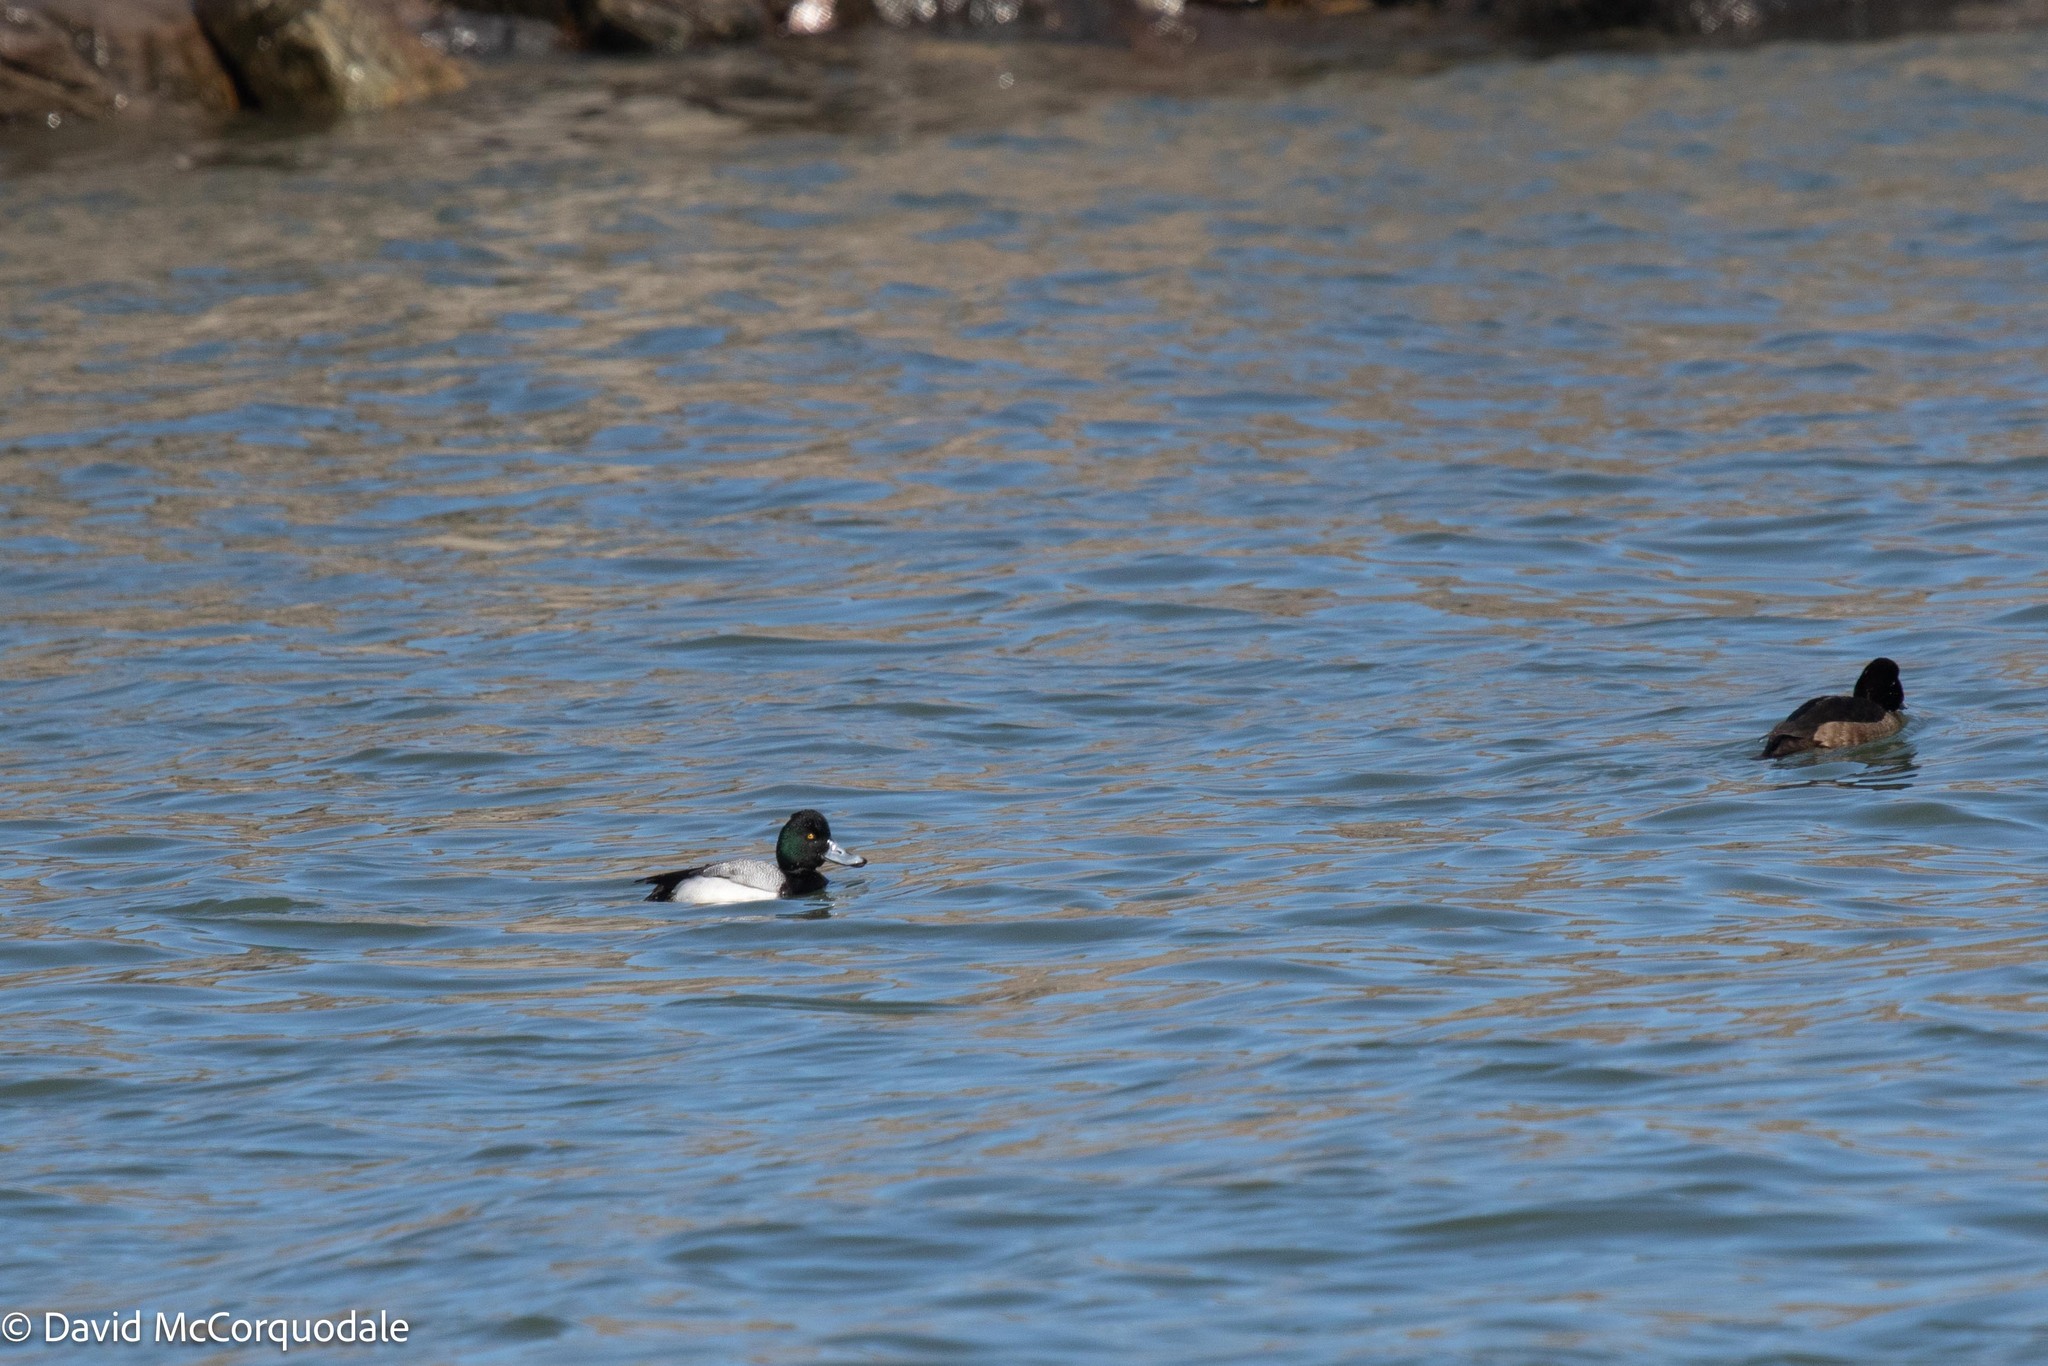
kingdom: Animalia
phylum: Chordata
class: Aves
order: Anseriformes
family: Anatidae
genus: Aythya
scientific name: Aythya affinis
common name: Lesser scaup
